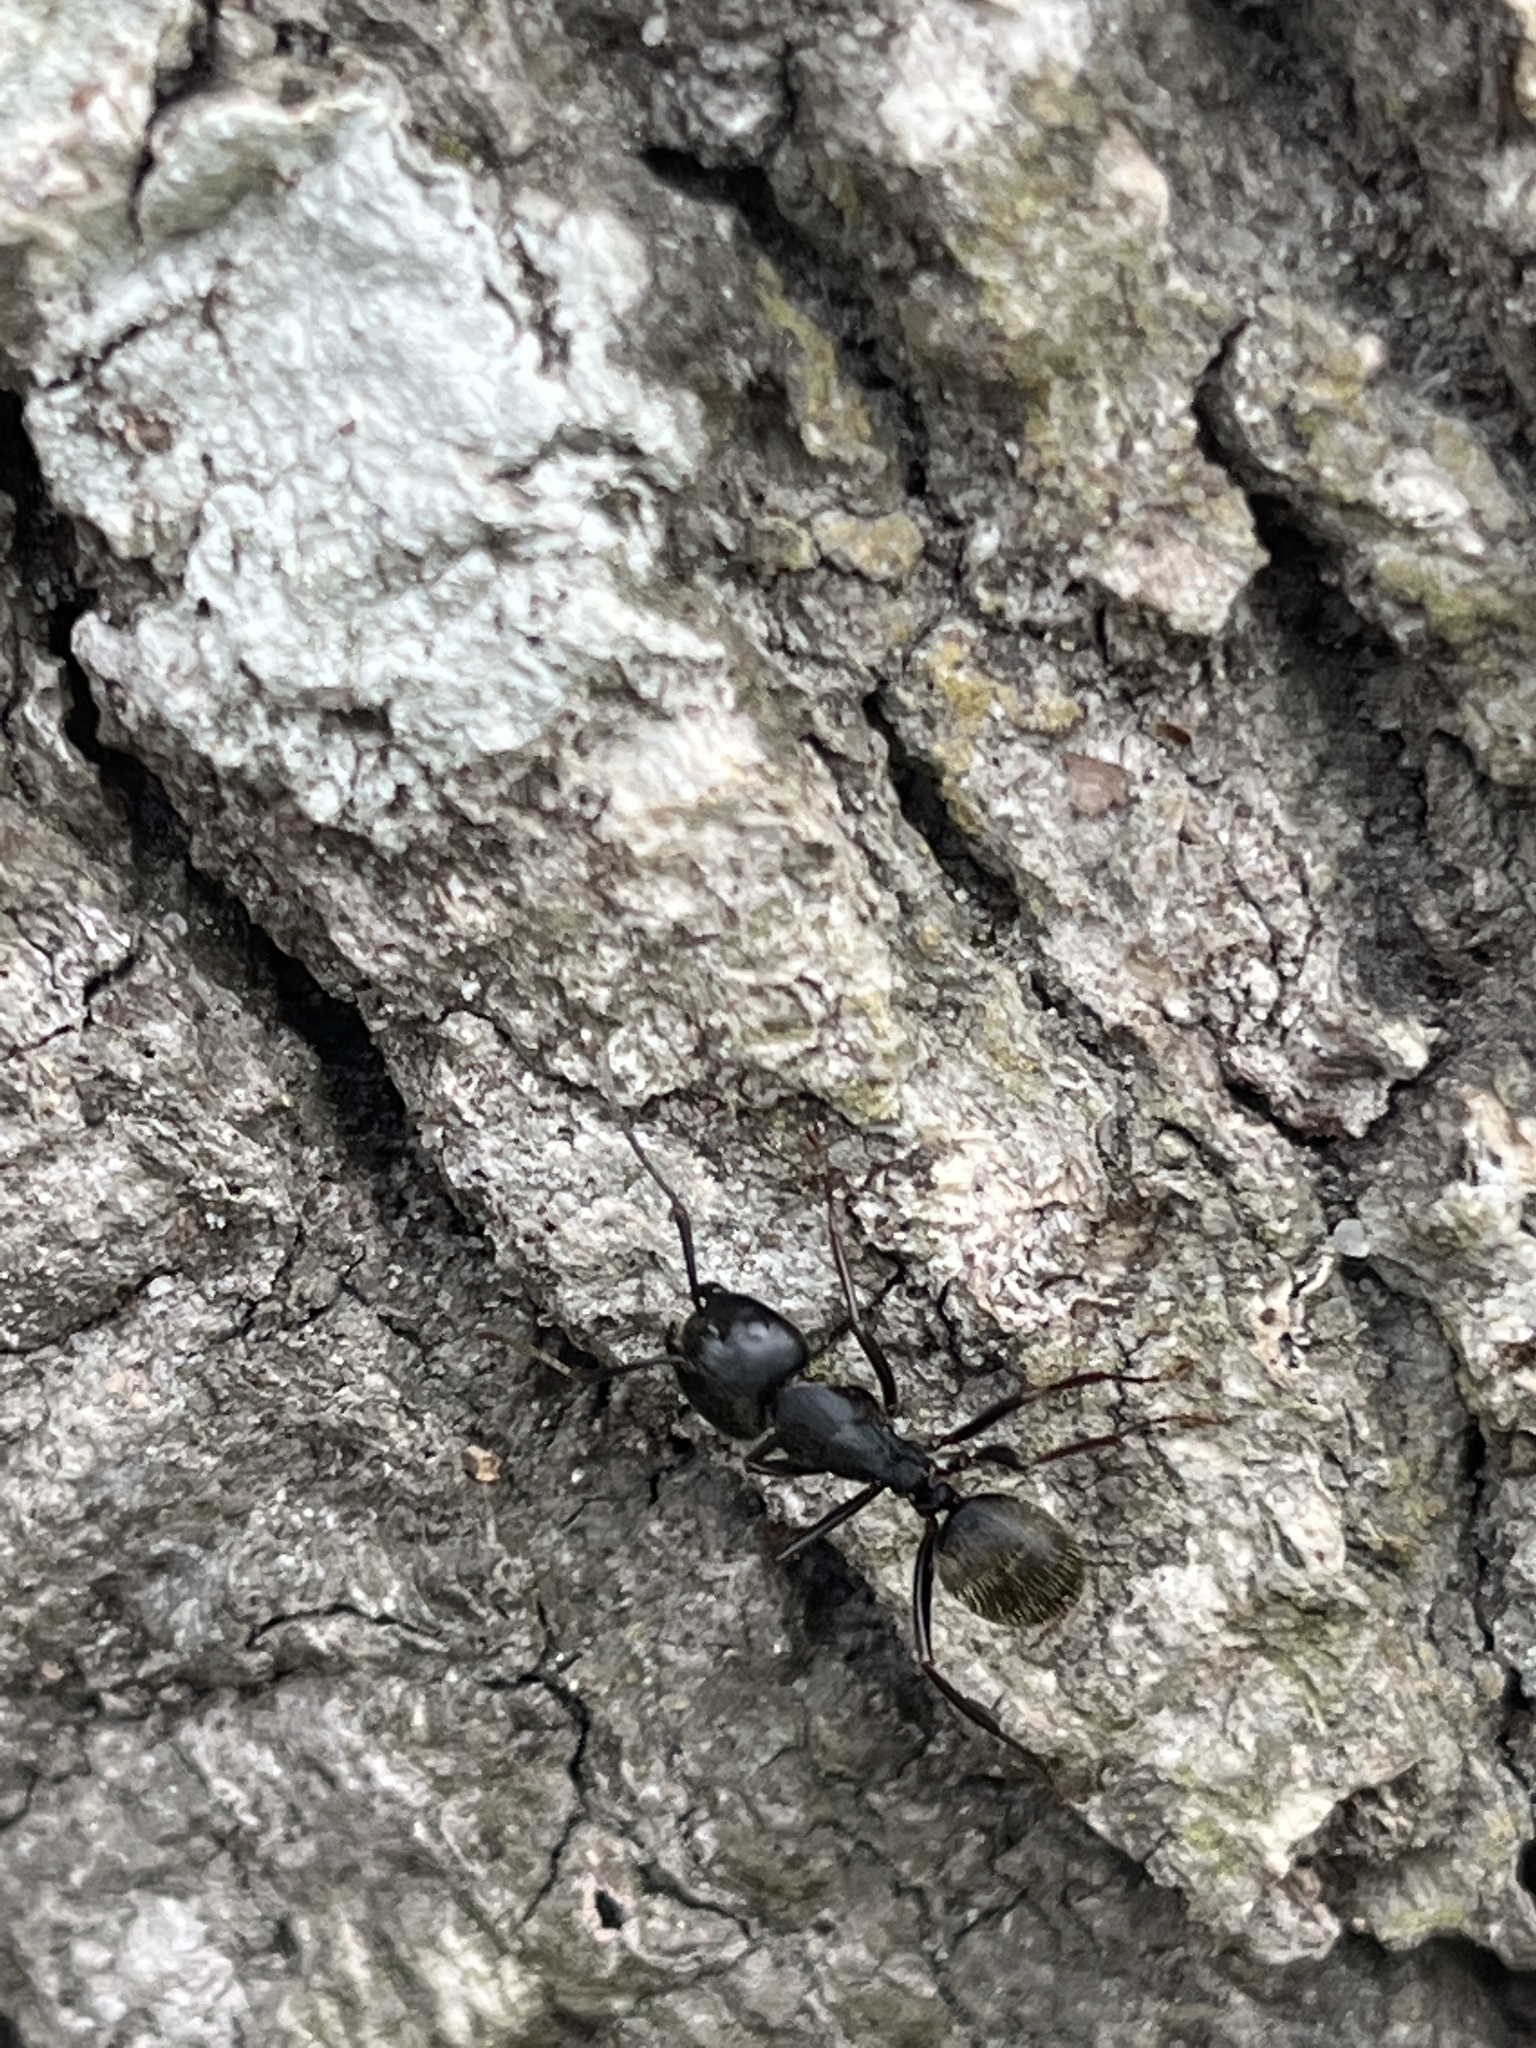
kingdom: Animalia
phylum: Arthropoda
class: Insecta
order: Hymenoptera
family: Formicidae
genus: Camponotus
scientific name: Camponotus pennsylvanicus
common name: Black carpenter ant
